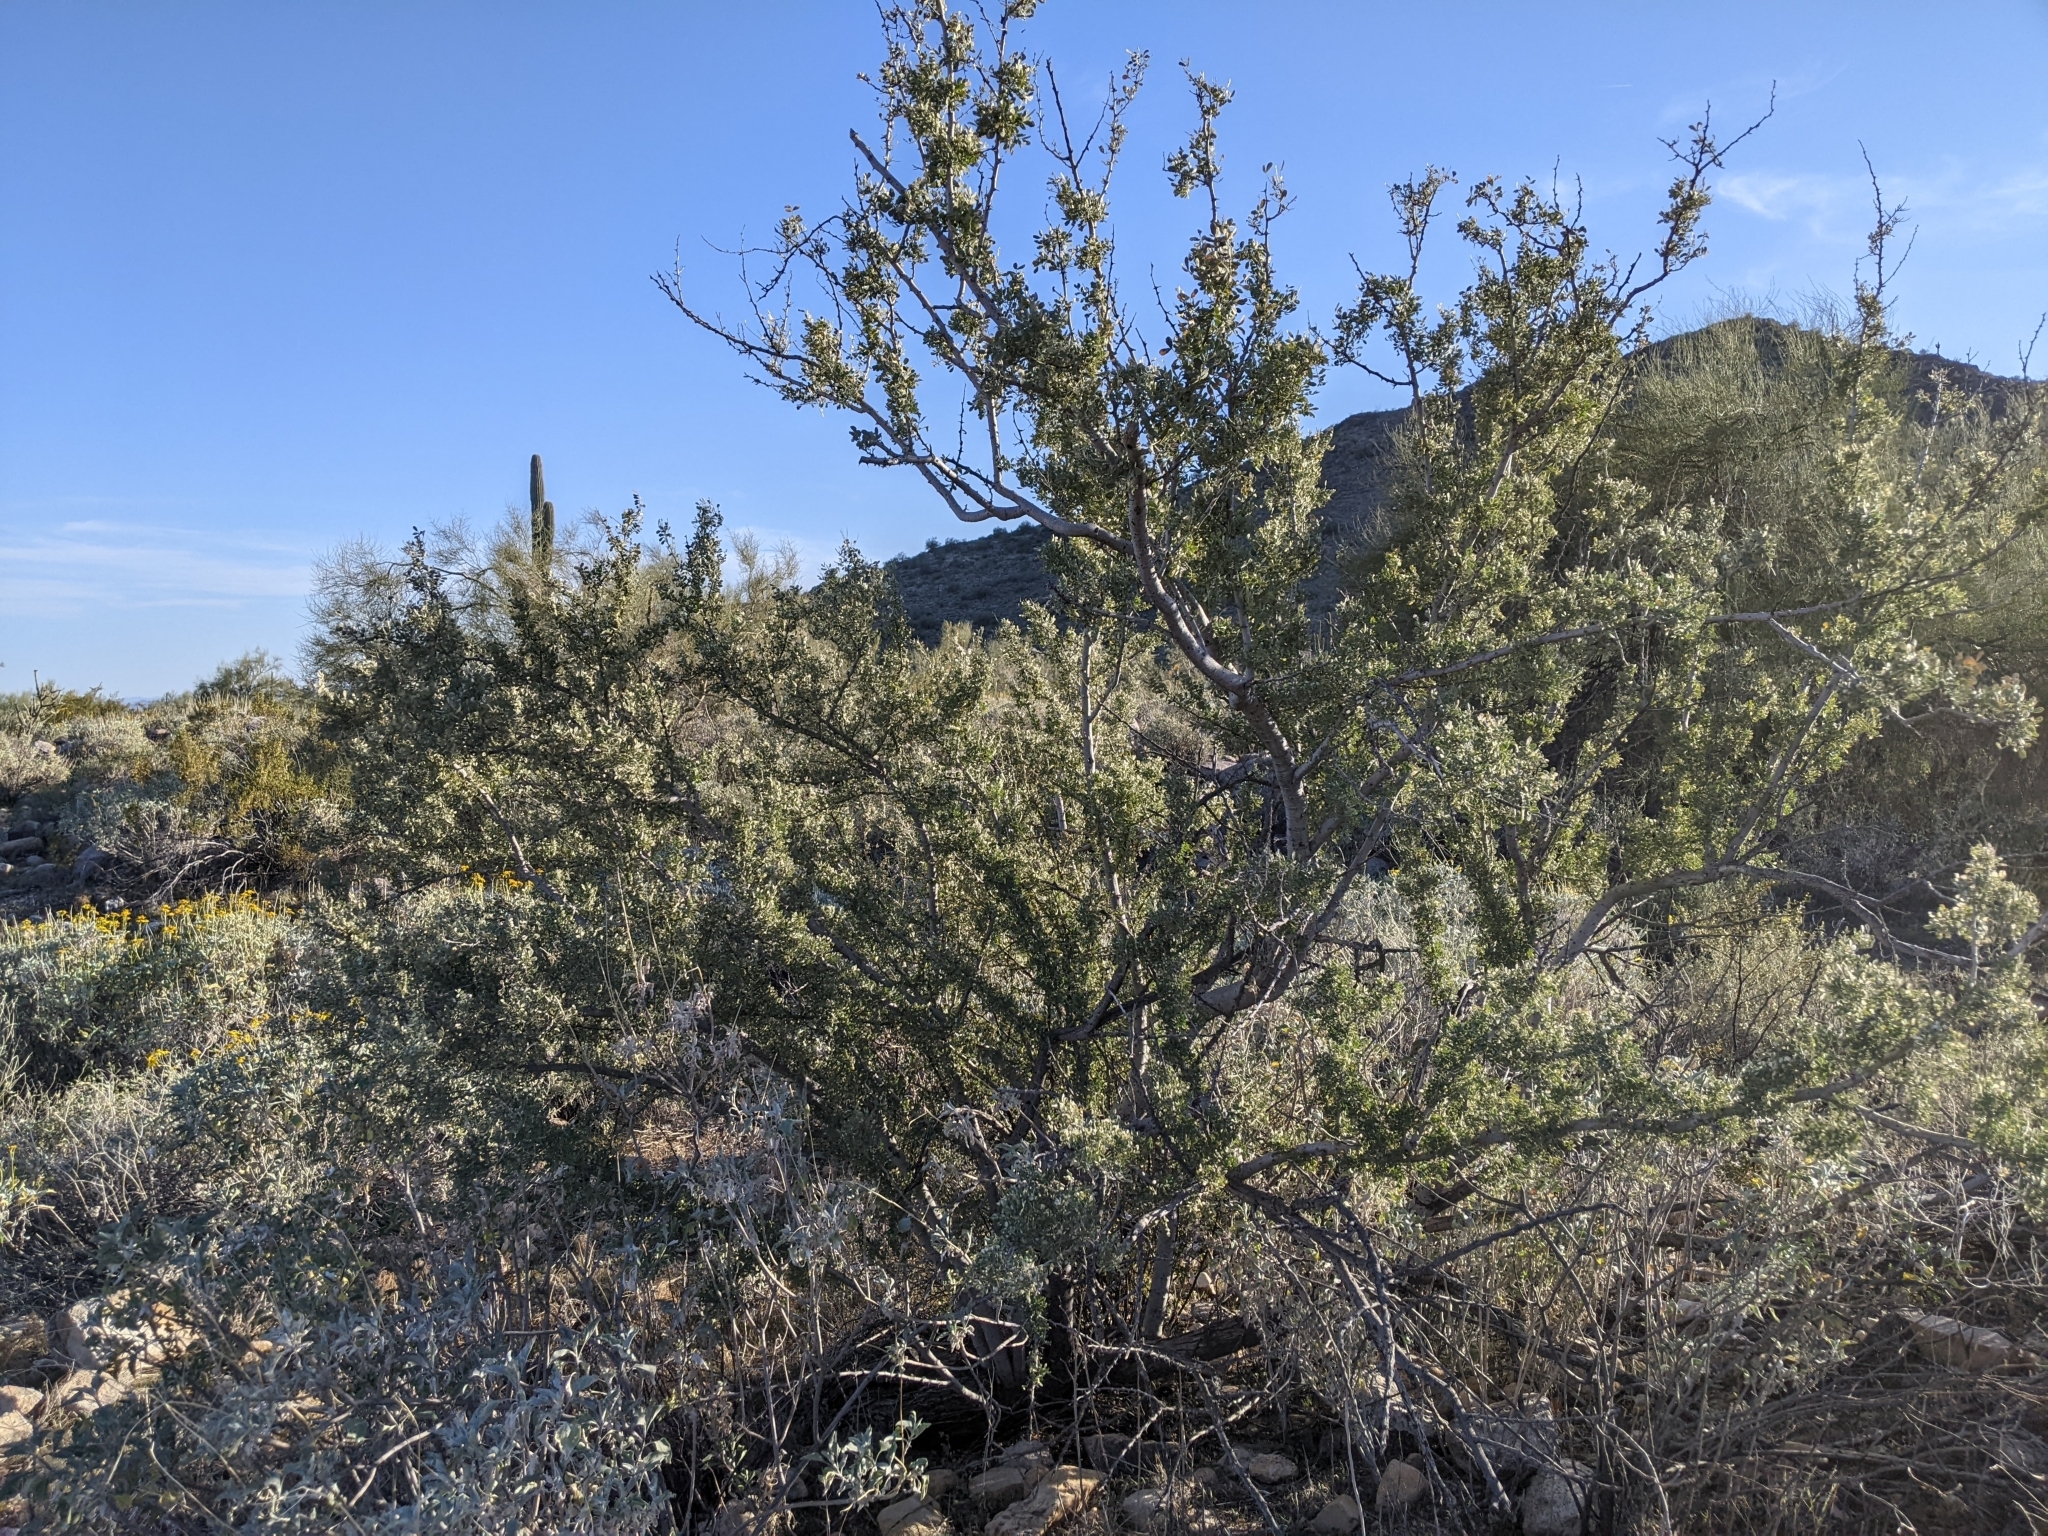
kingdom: Plantae
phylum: Tracheophyta
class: Magnoliopsida
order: Fabales
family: Fabaceae
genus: Olneya
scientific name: Olneya tesota
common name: Desert ironwood
